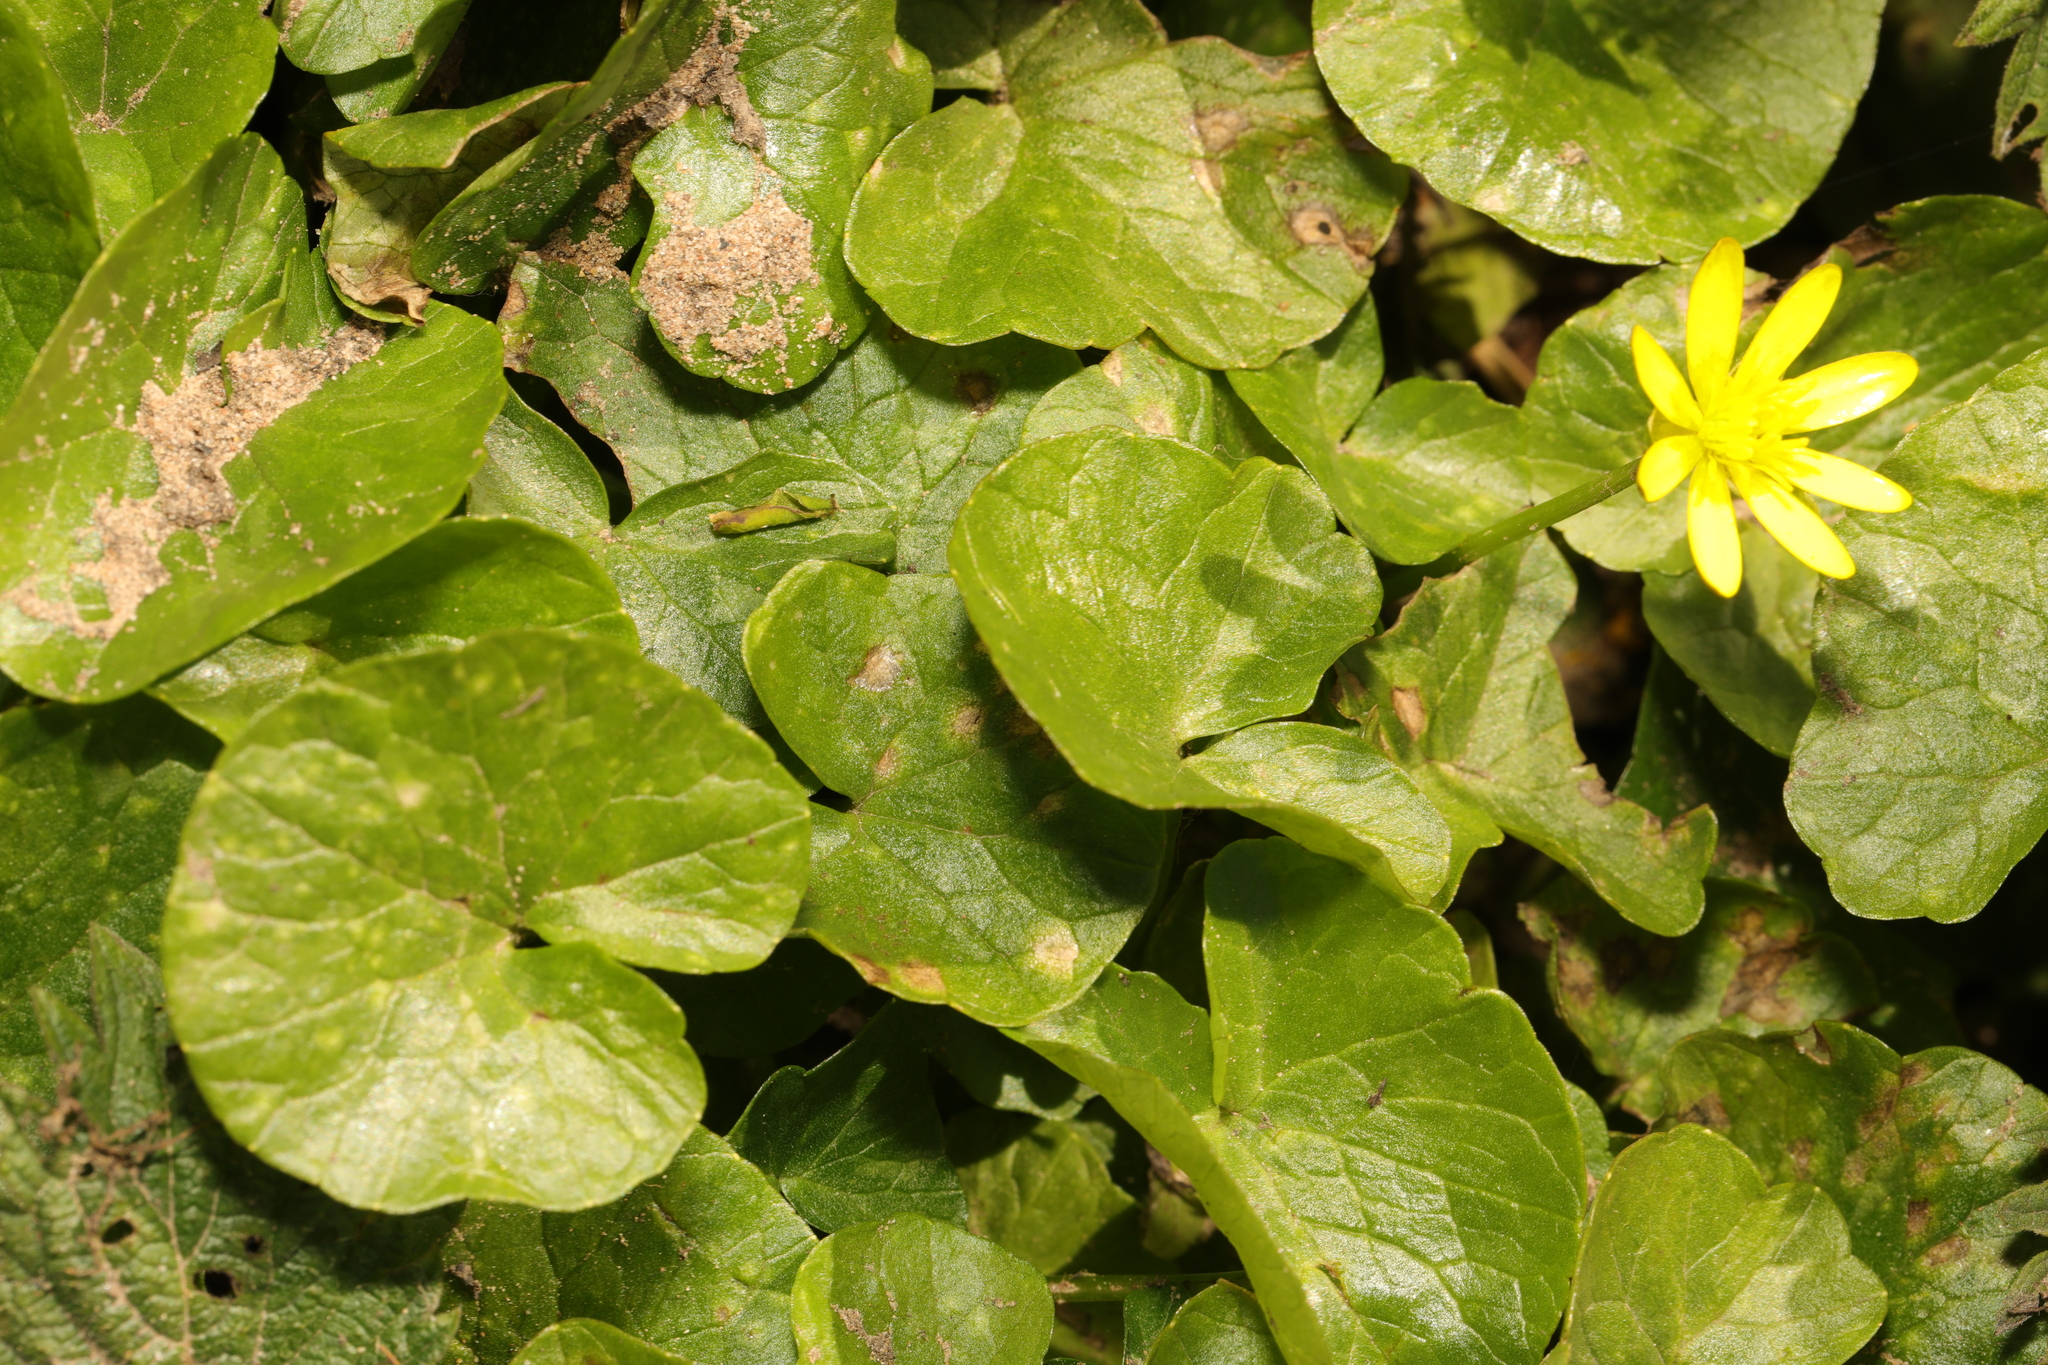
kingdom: Plantae
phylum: Tracheophyta
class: Magnoliopsida
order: Ranunculales
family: Ranunculaceae
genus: Ficaria
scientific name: Ficaria verna
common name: Lesser celandine
